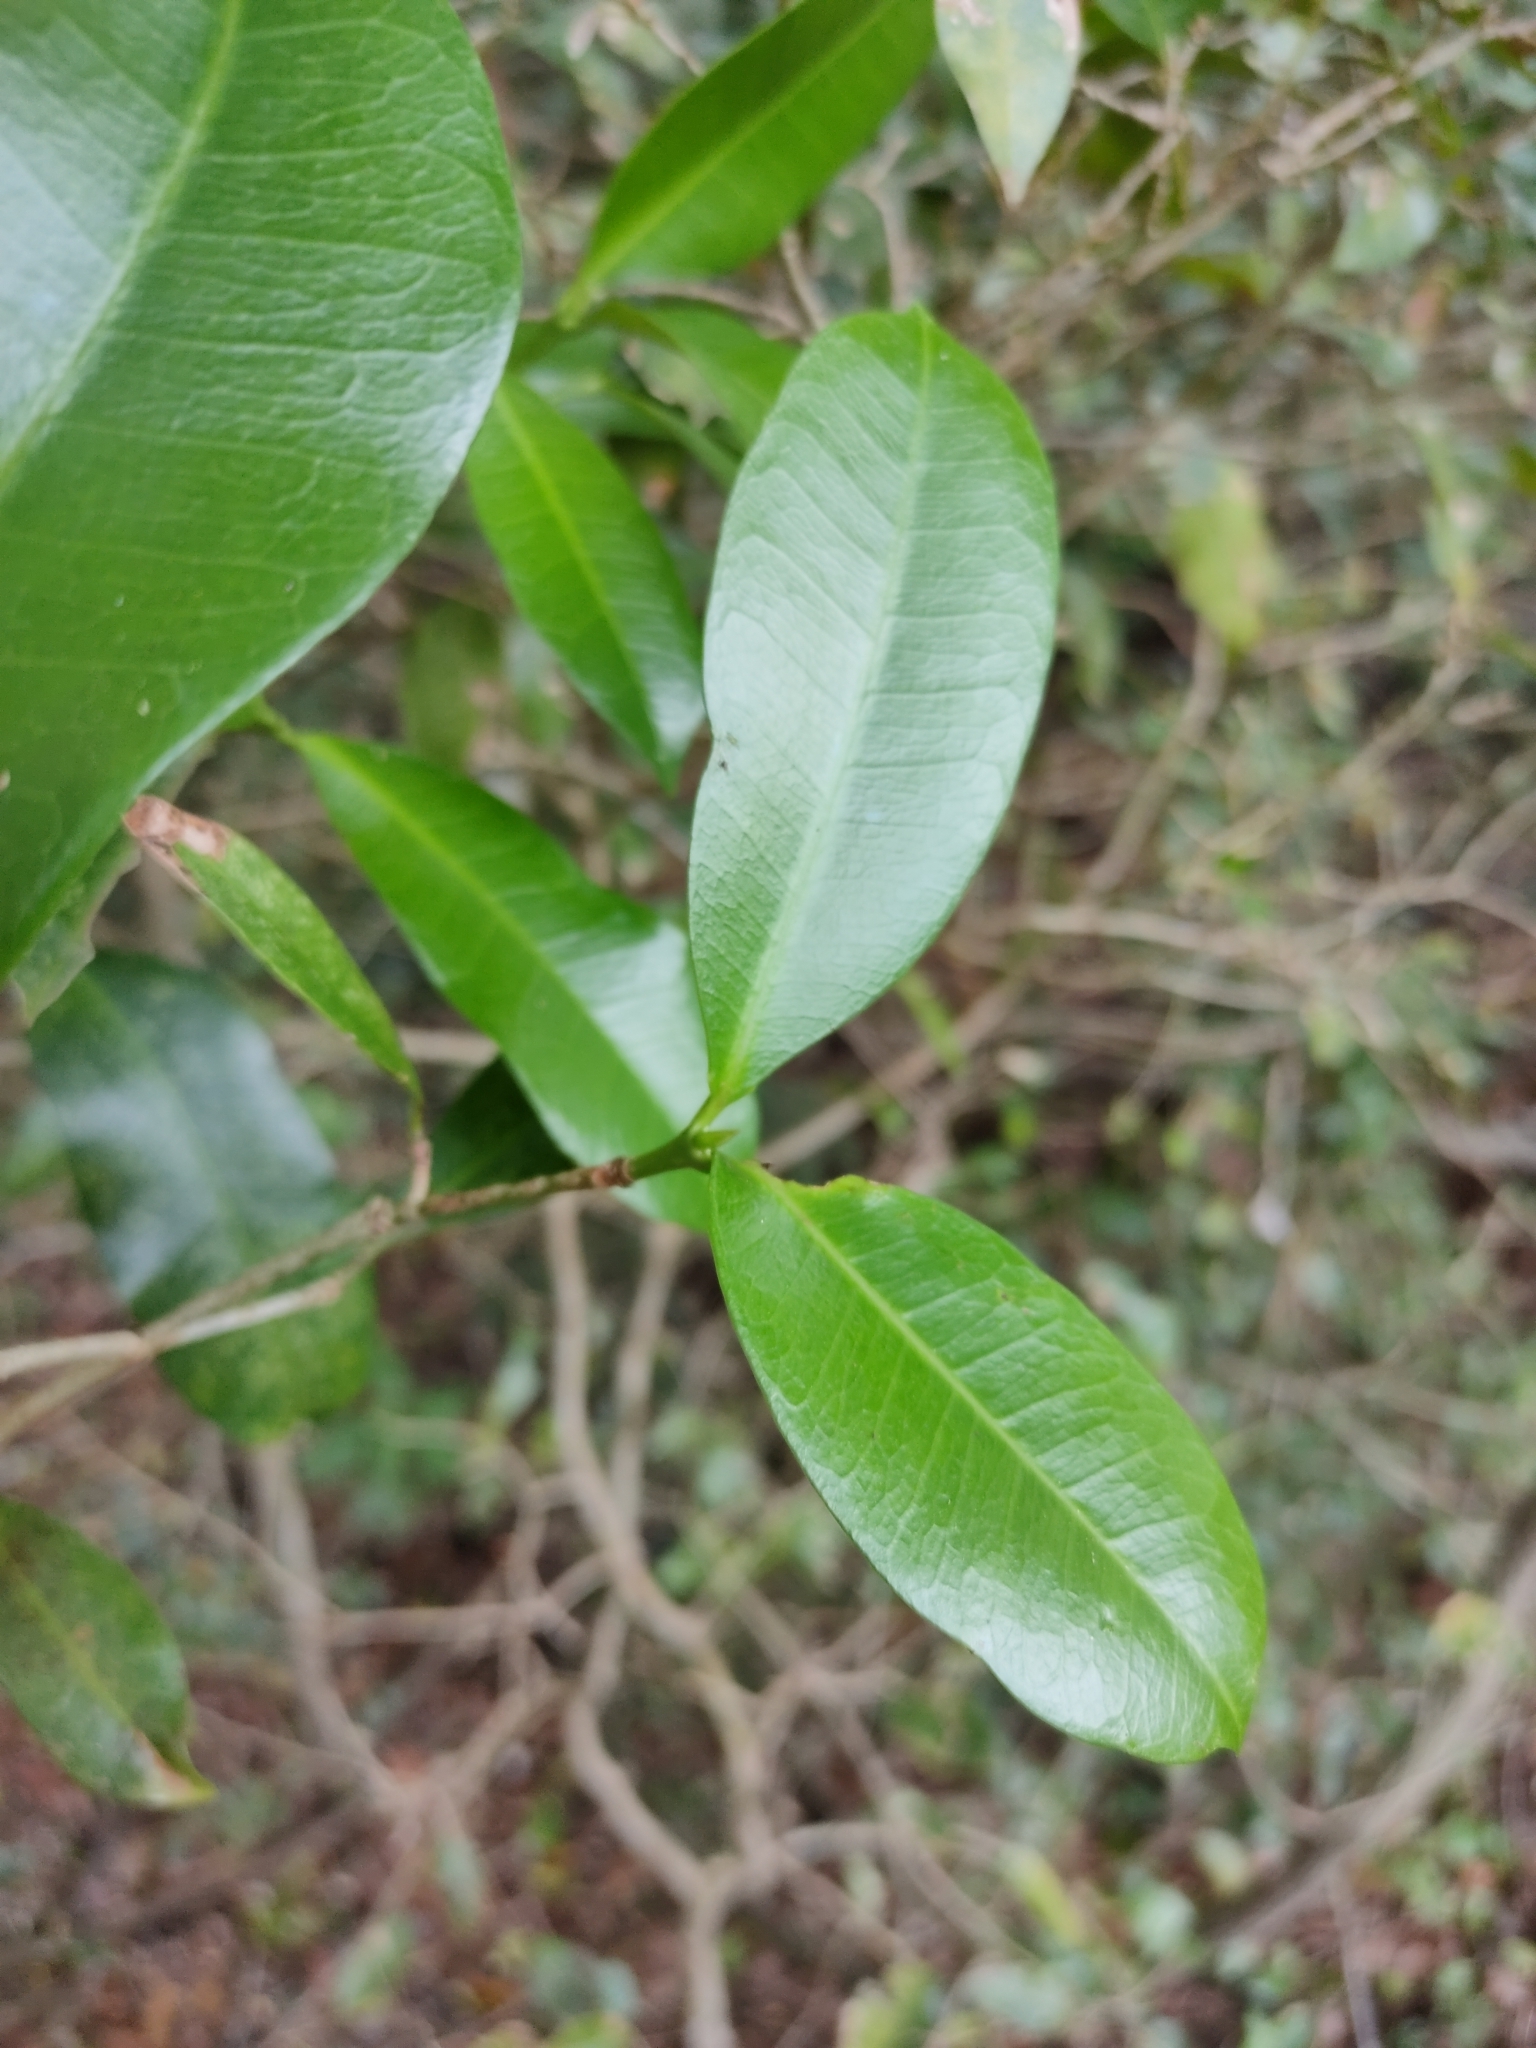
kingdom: Plantae
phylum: Tracheophyta
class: Magnoliopsida
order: Malpighiales
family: Euphorbiaceae
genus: Baloghia
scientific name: Baloghia inophylla
